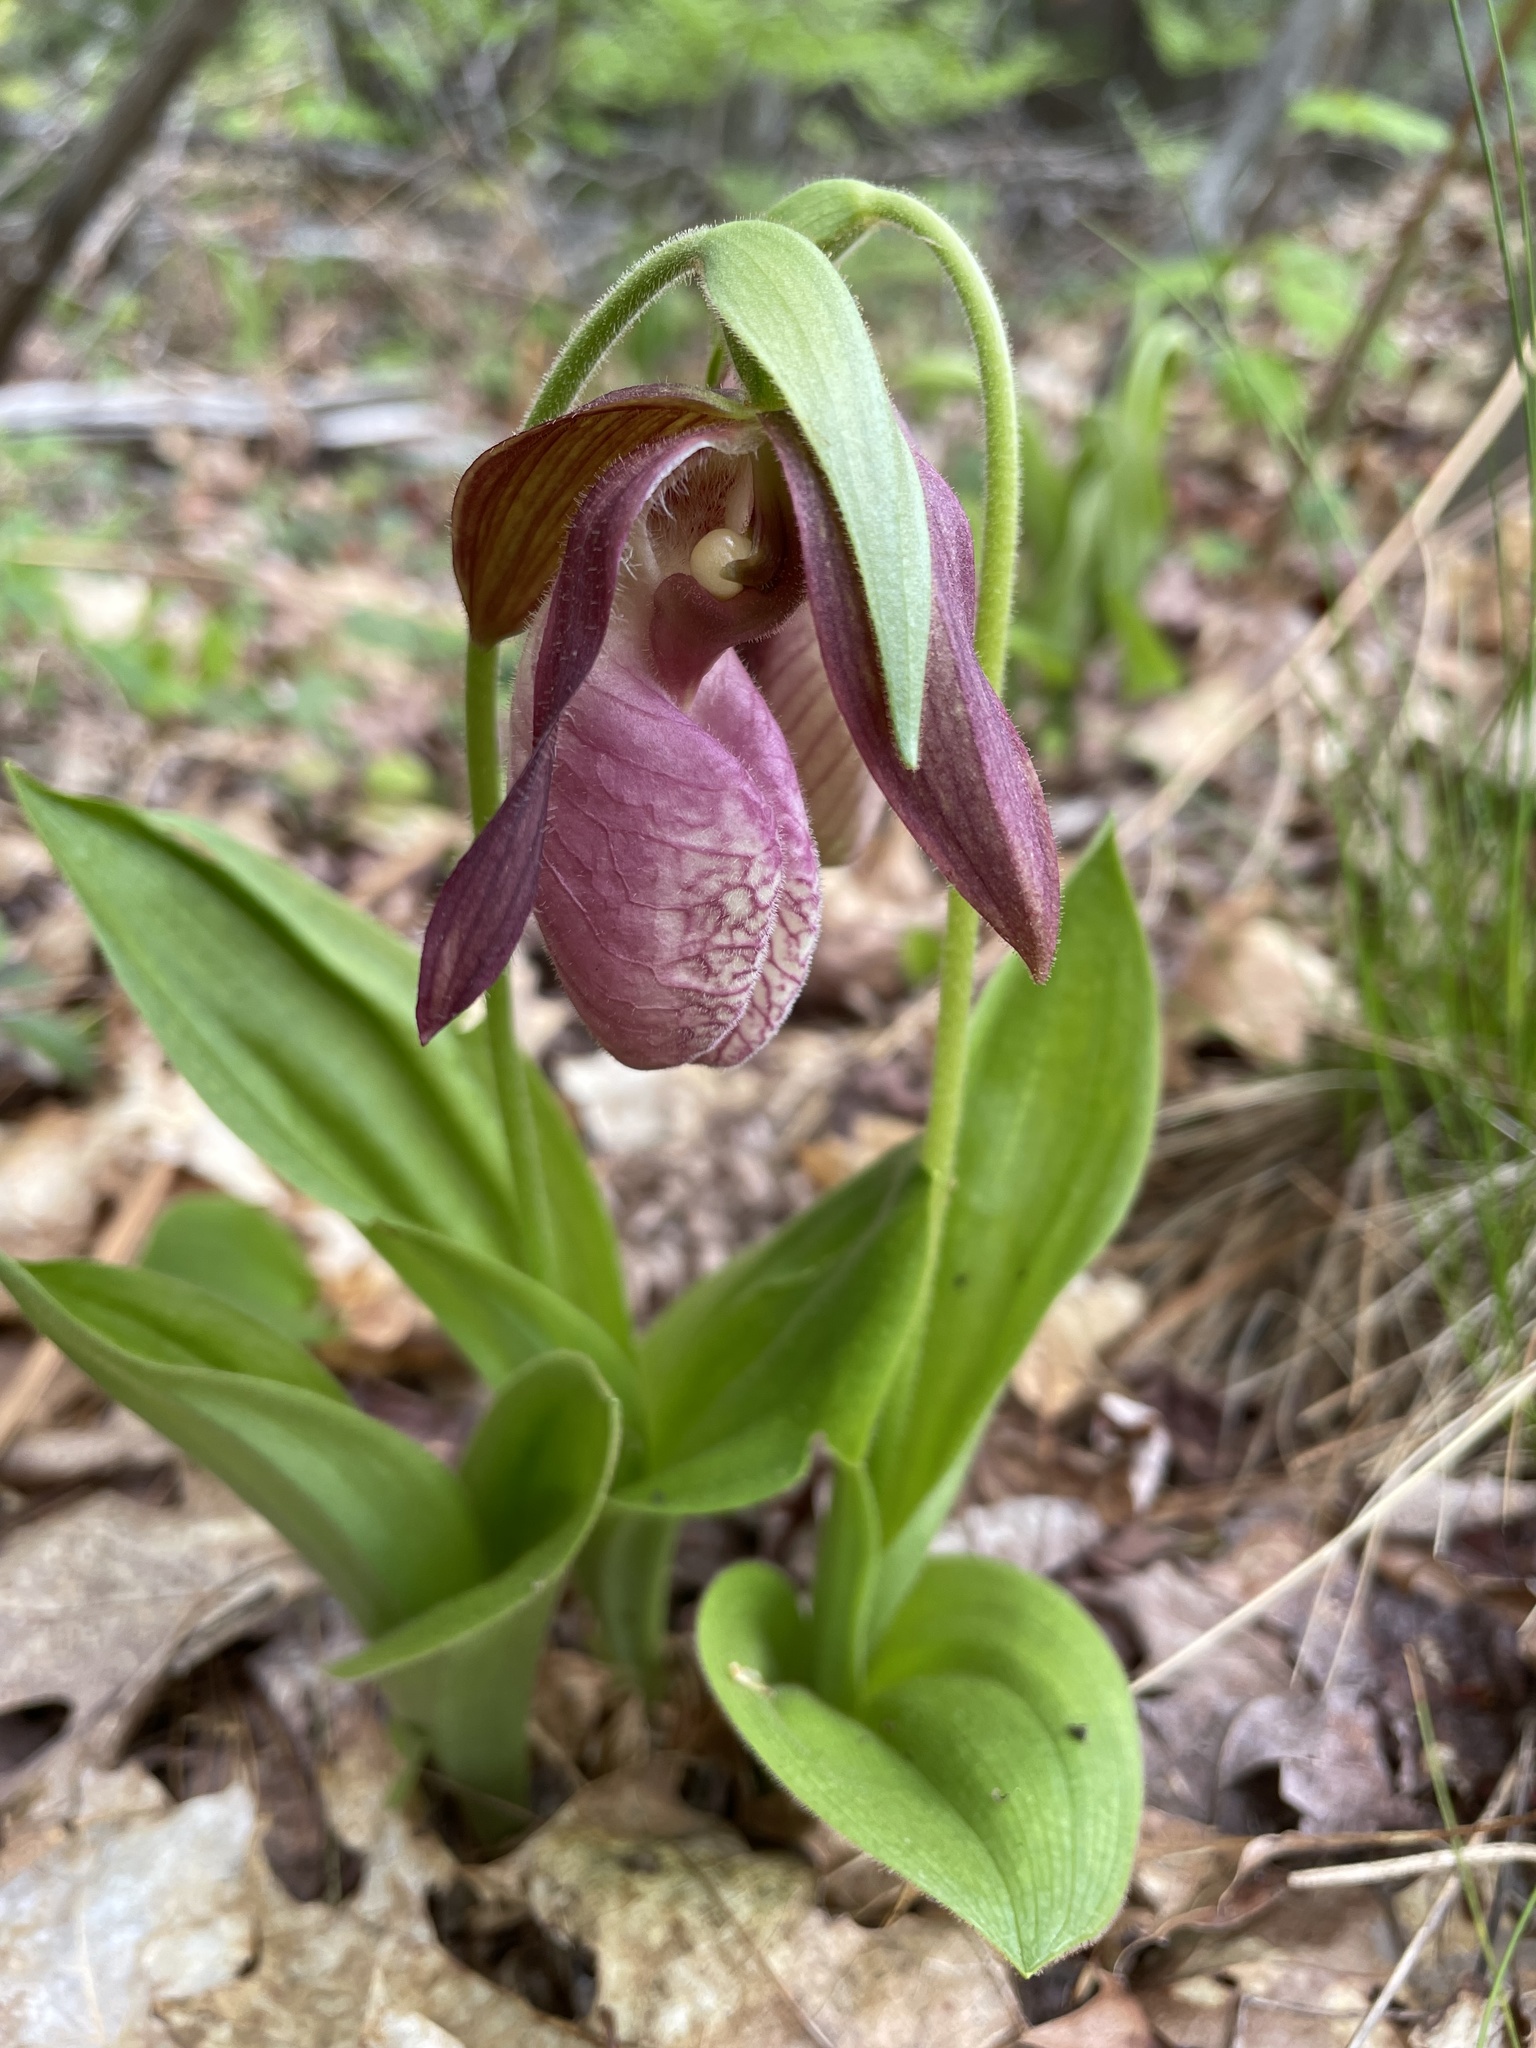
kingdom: Plantae
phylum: Tracheophyta
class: Liliopsida
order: Asparagales
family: Orchidaceae
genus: Cypripedium
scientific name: Cypripedium acaule
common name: Pink lady's-slipper
